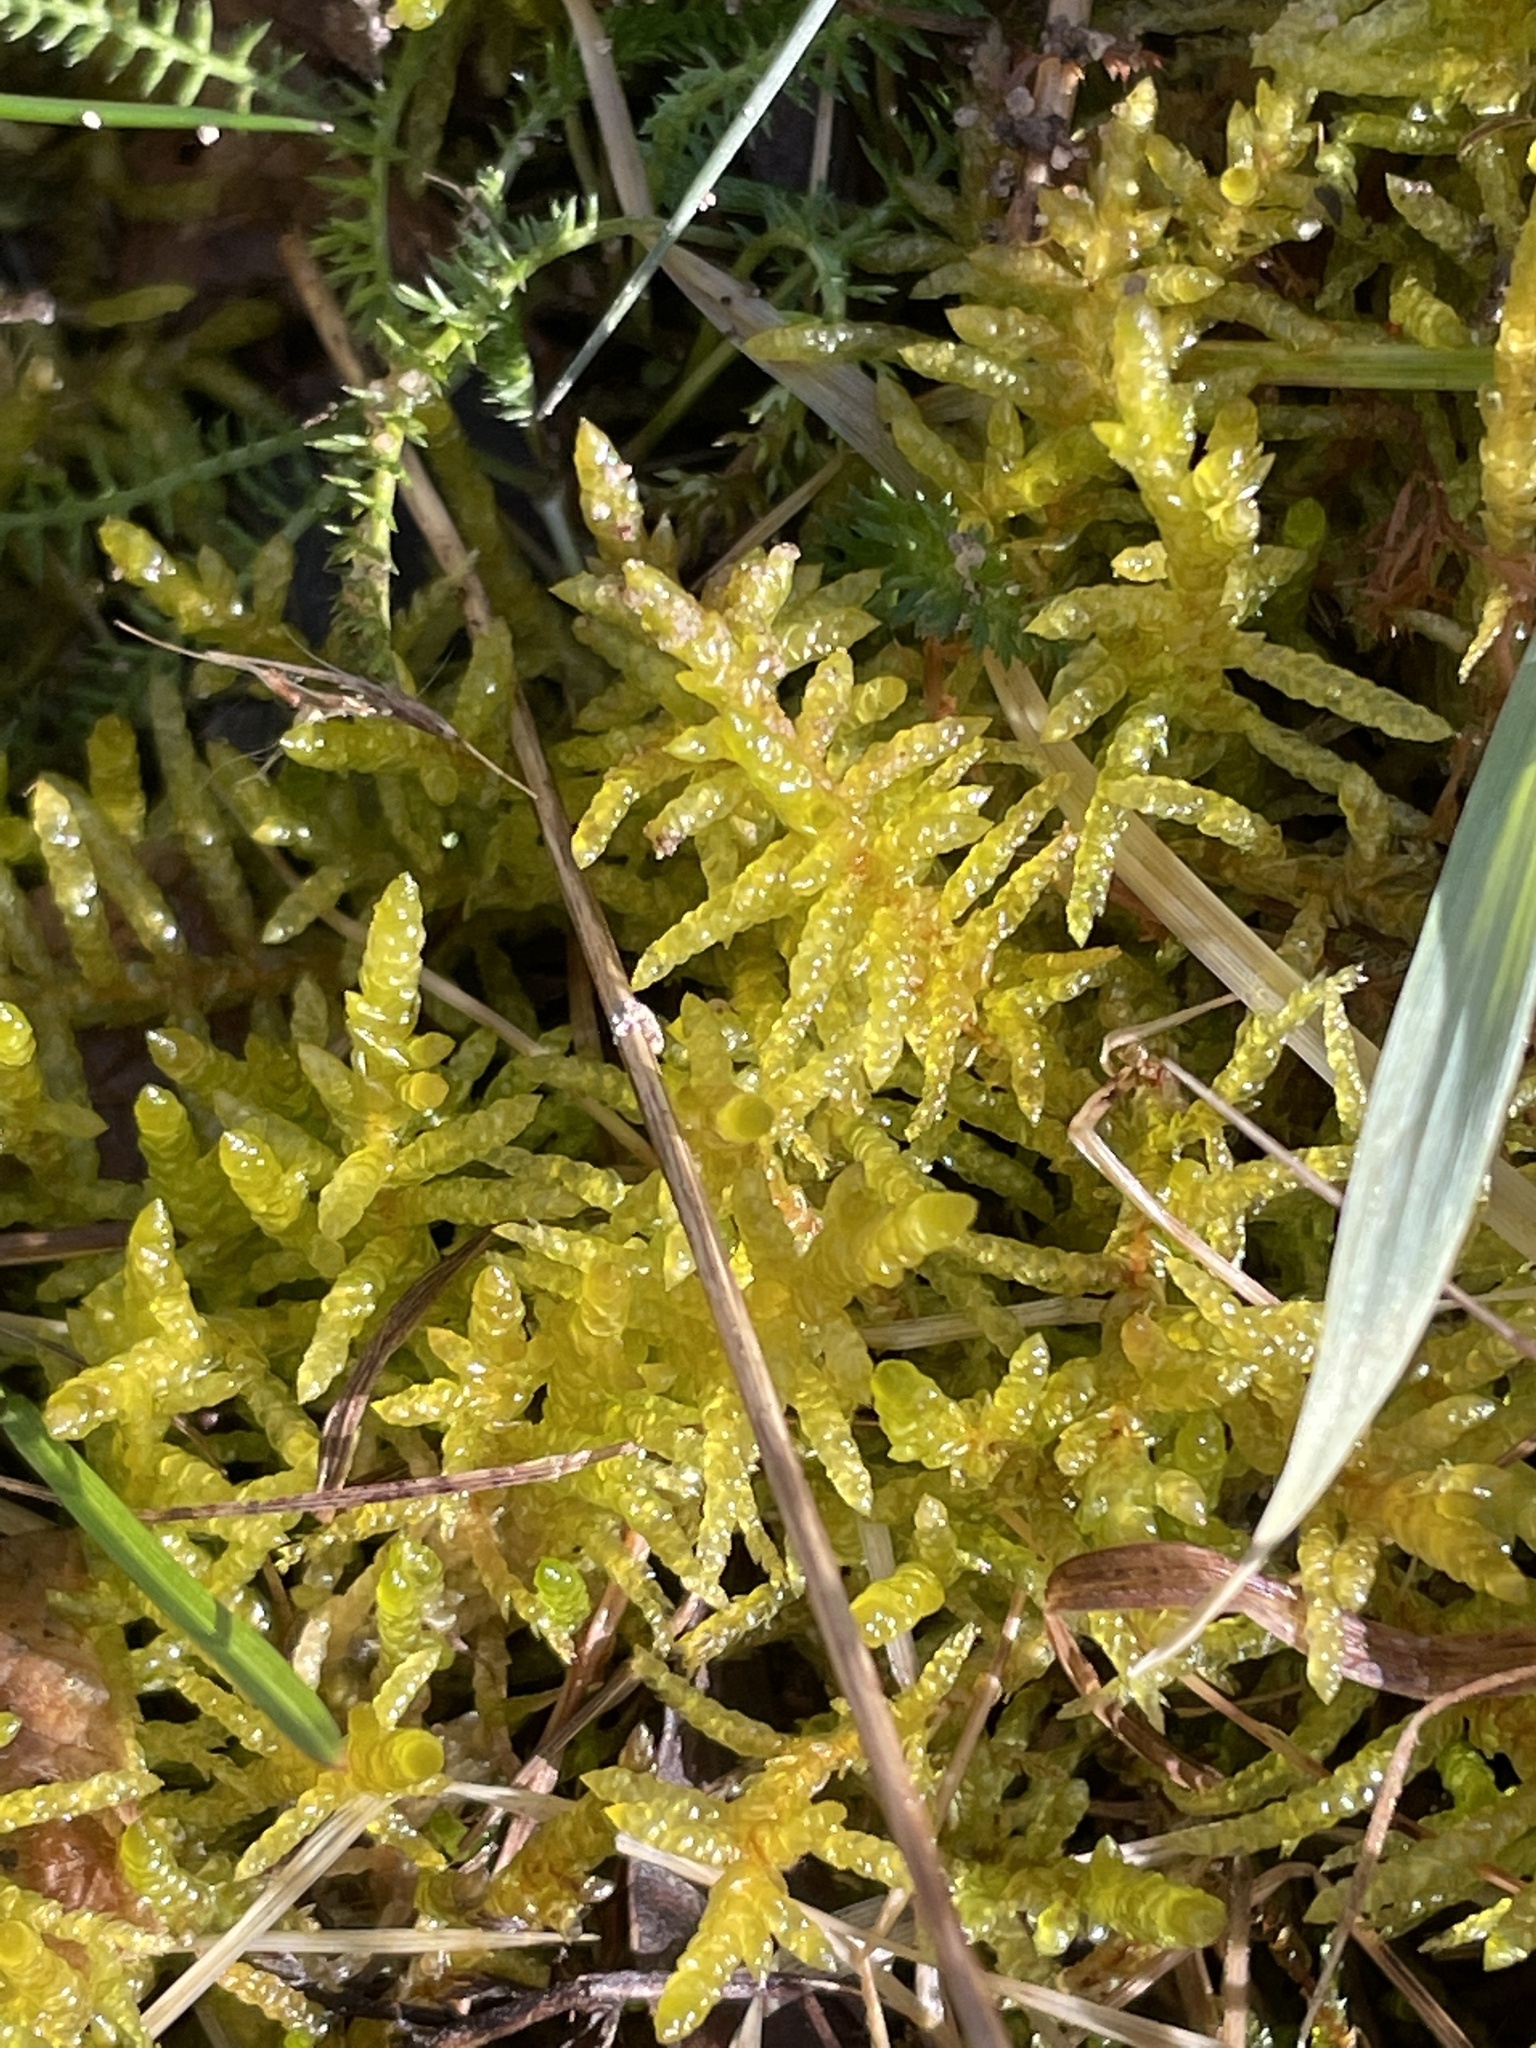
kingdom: Plantae
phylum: Bryophyta
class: Bryopsida
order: Hypnales
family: Brachytheciaceae
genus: Pseudoscleropodium
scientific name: Pseudoscleropodium purum
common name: Neat feather-moss
